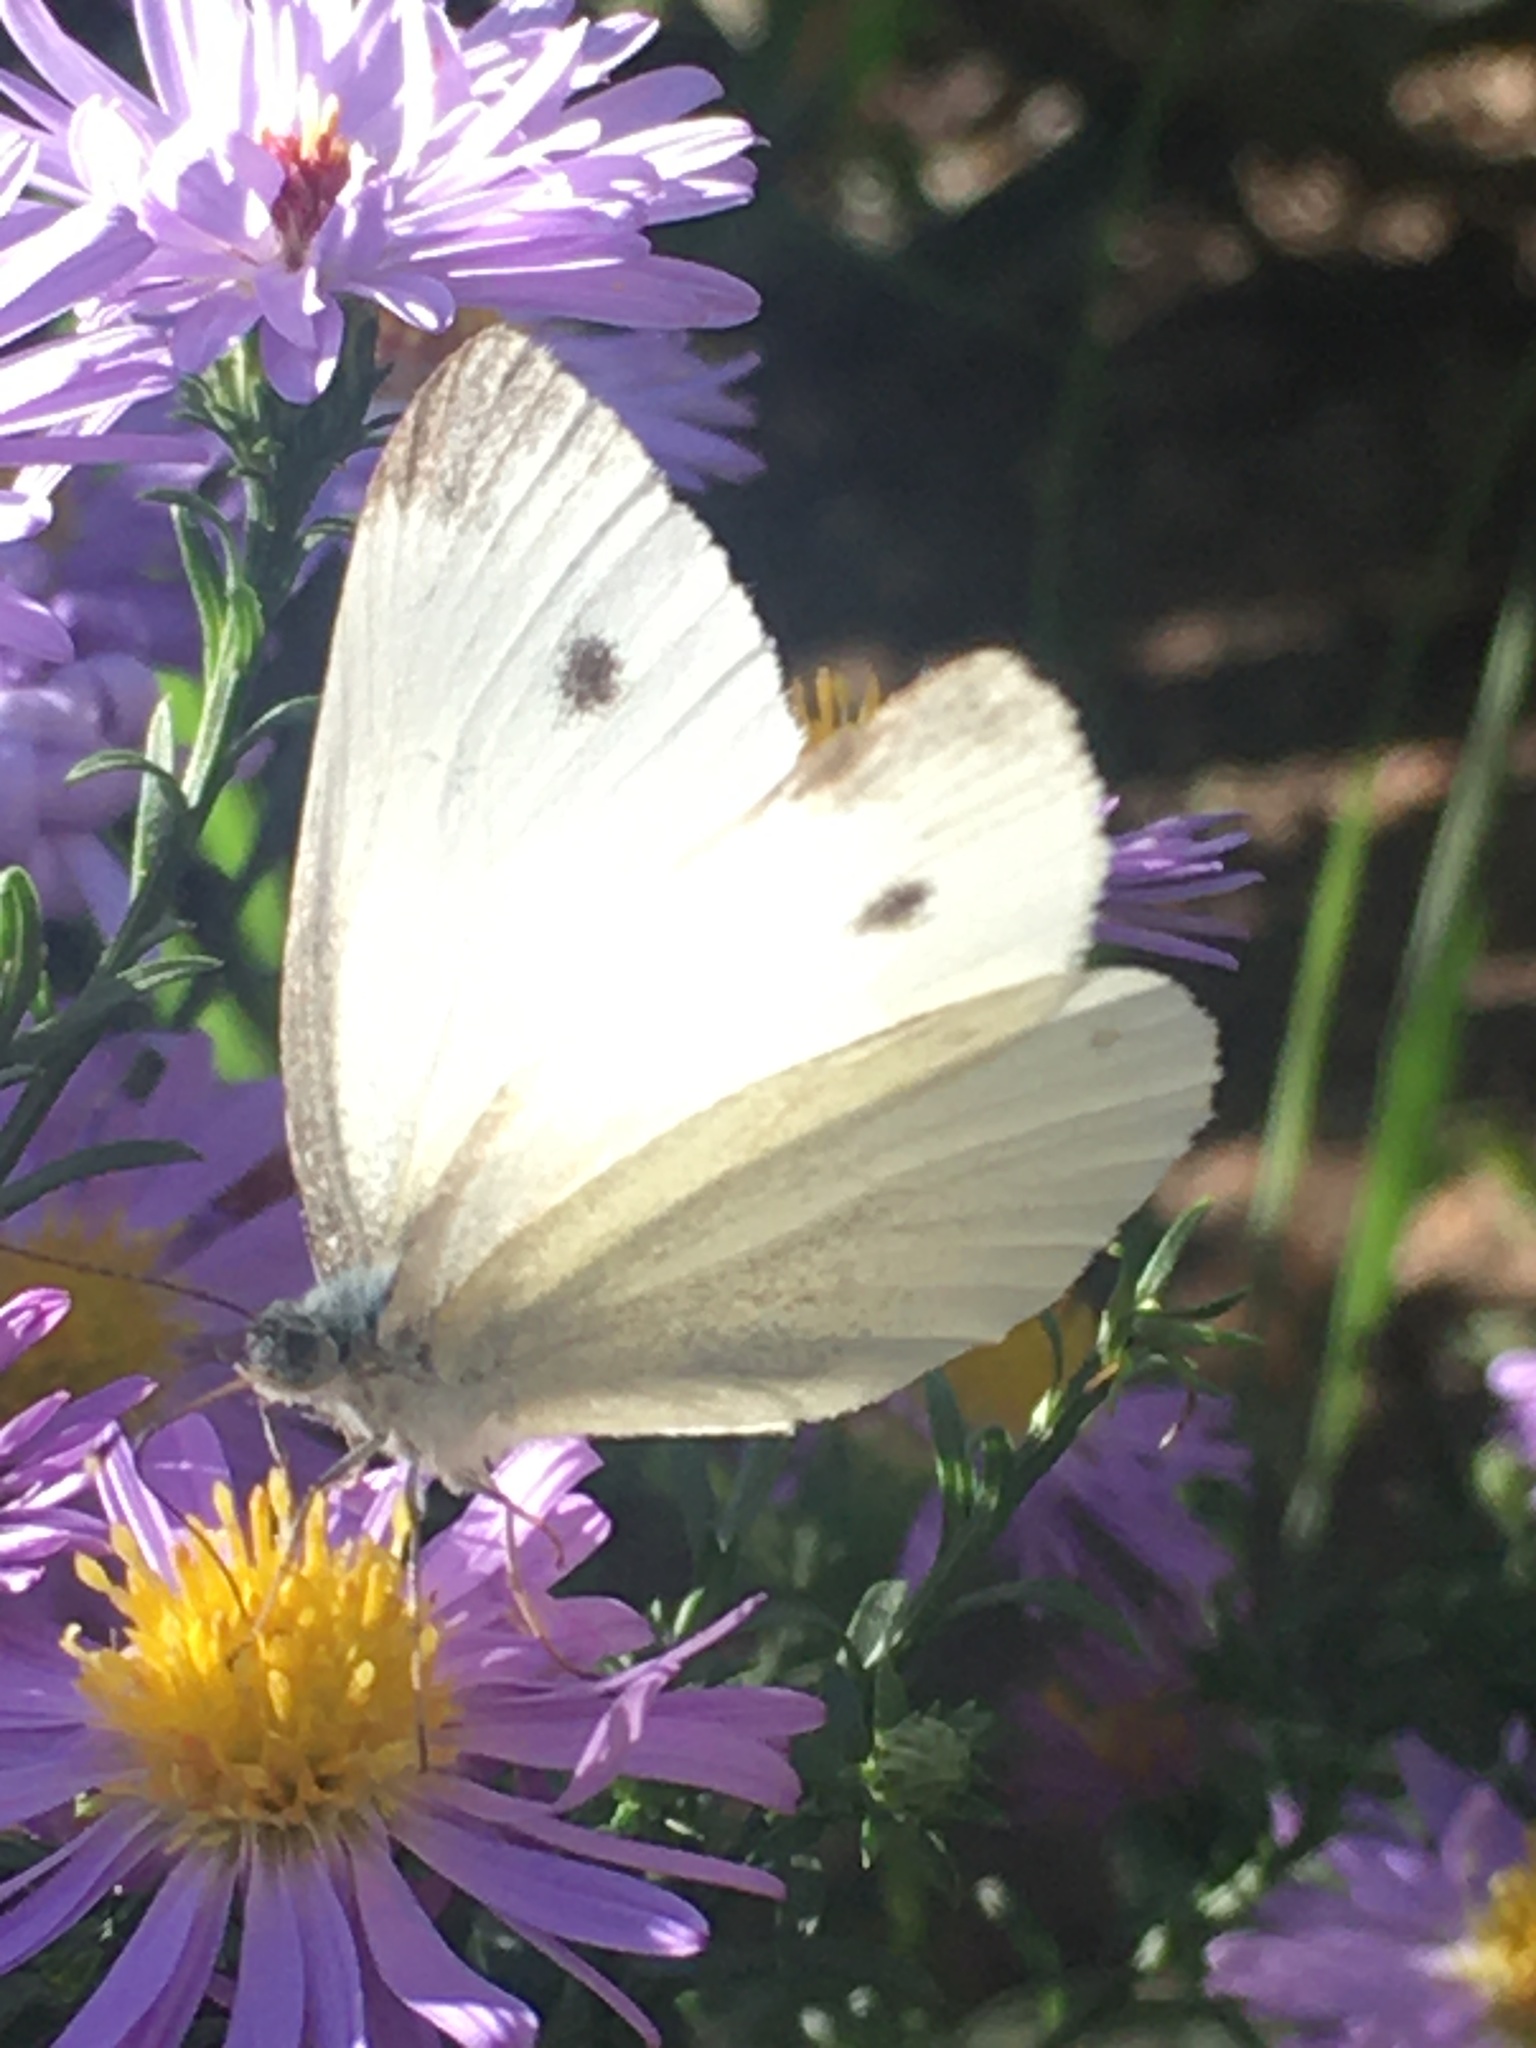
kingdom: Animalia
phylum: Arthropoda
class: Insecta
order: Lepidoptera
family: Pieridae
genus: Pieris
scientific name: Pieris rapae
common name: Small white
